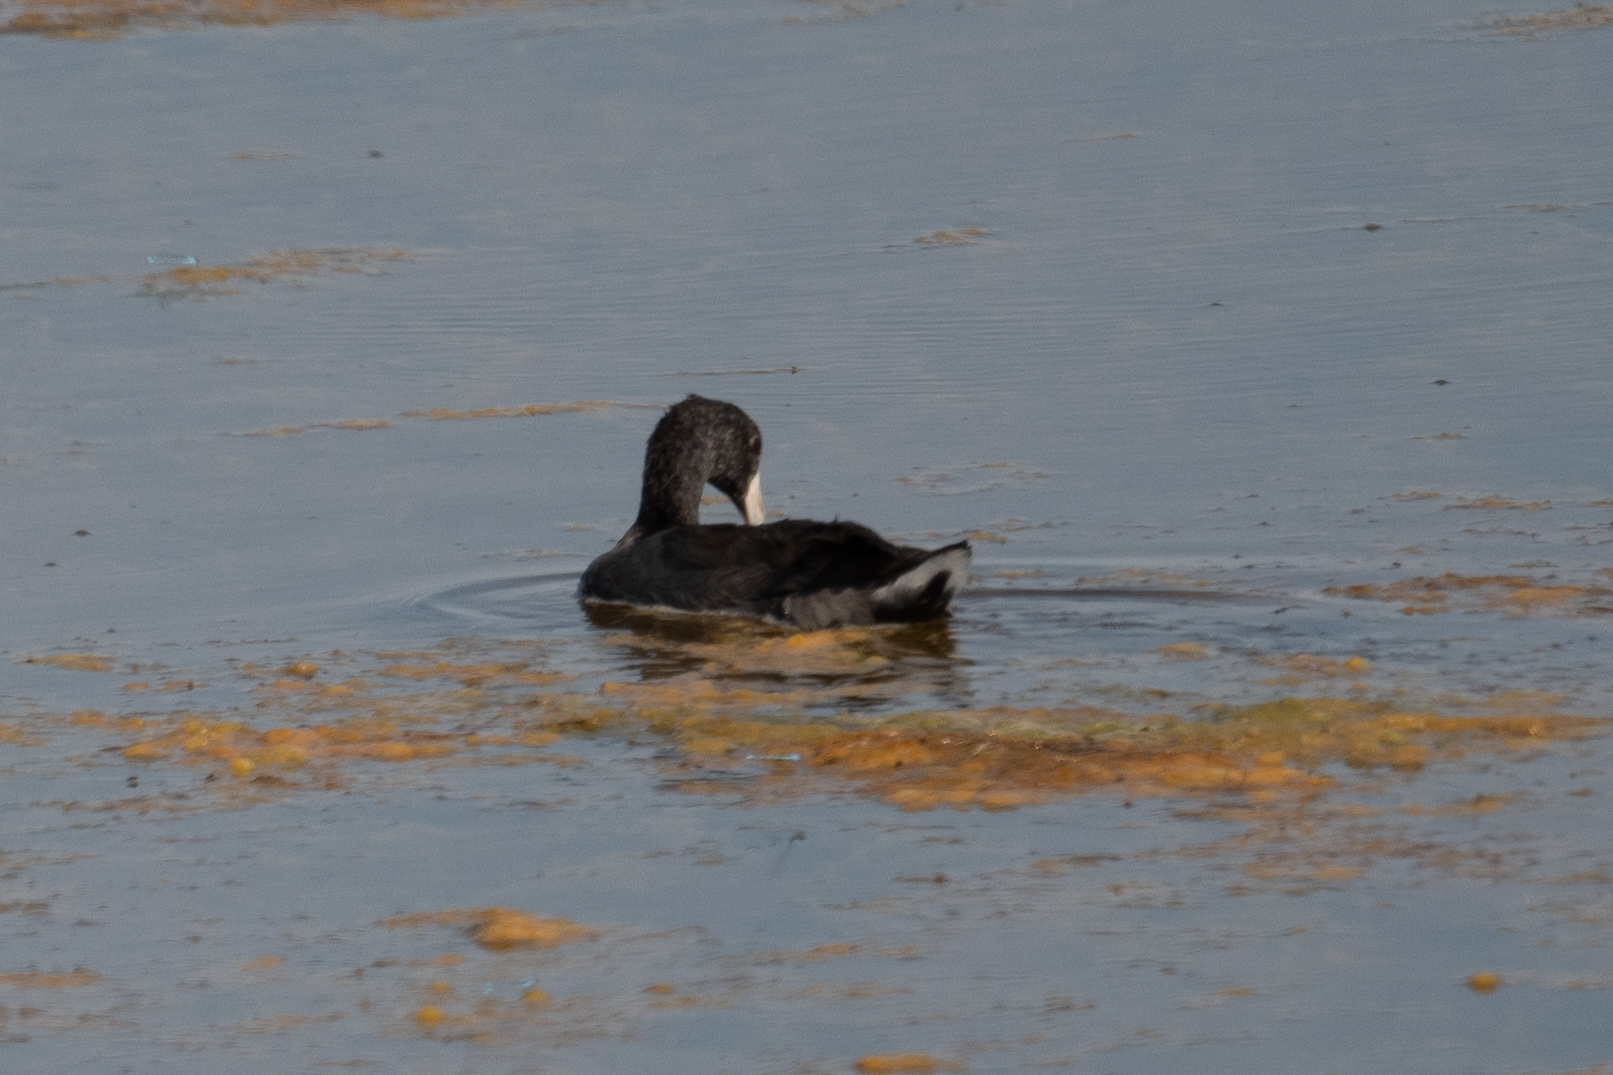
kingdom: Animalia
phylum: Chordata
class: Aves
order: Gruiformes
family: Rallidae
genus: Fulica
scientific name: Fulica americana
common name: American coot
